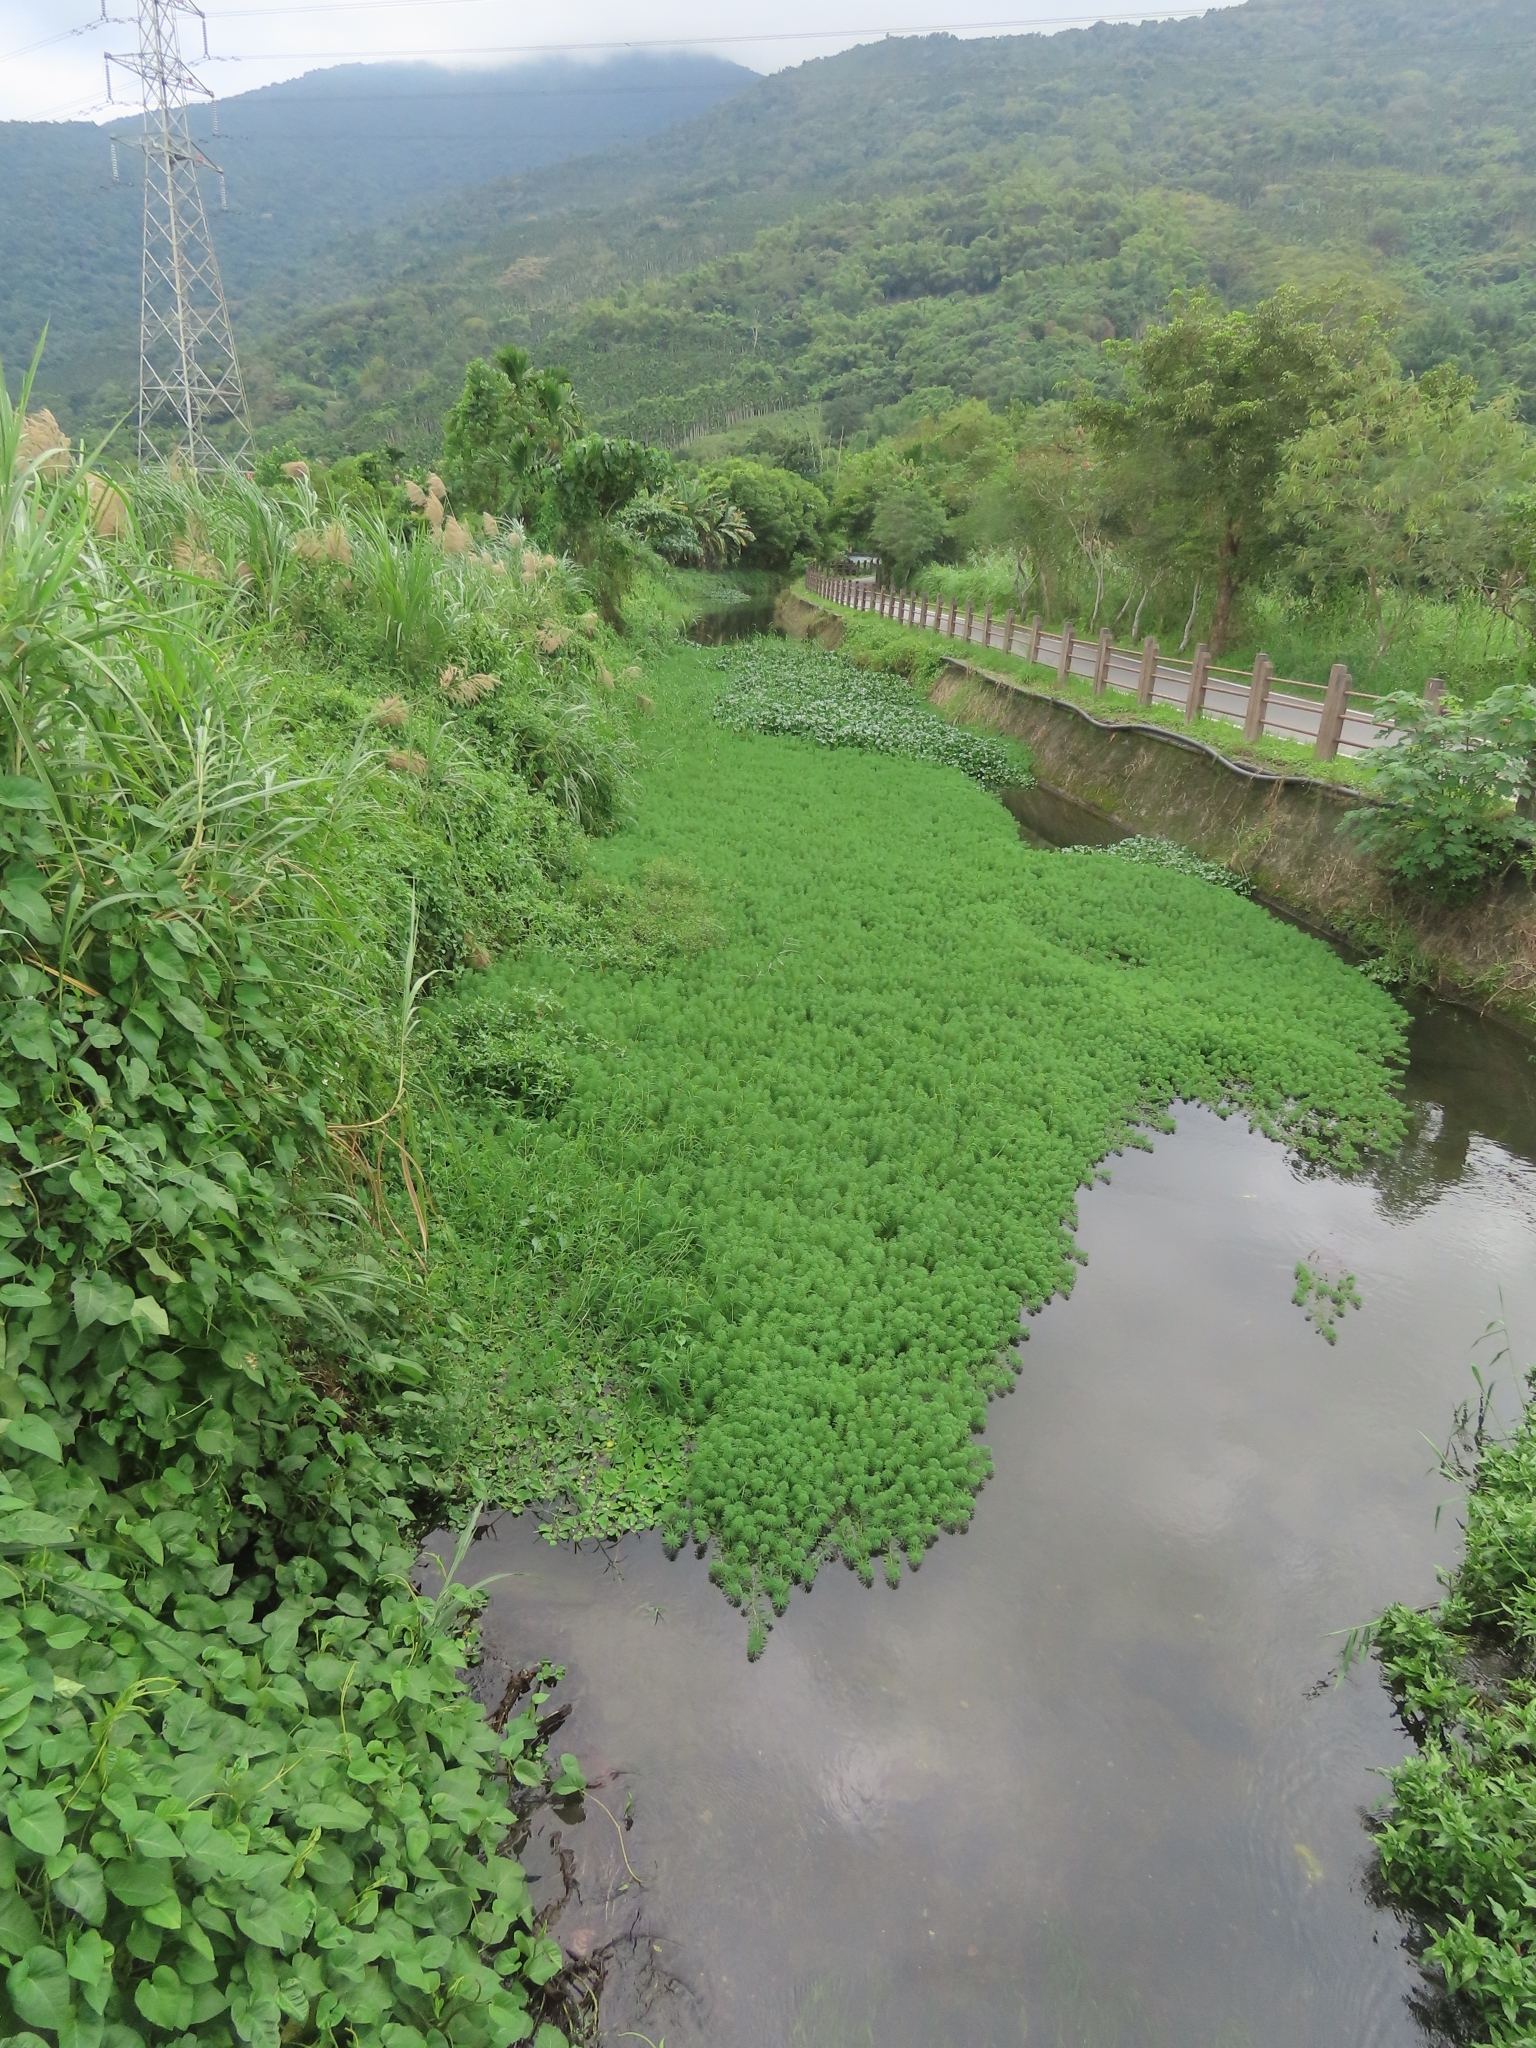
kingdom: Plantae
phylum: Tracheophyta
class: Magnoliopsida
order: Saxifragales
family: Haloragaceae
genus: Myriophyllum
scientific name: Myriophyllum aquaticum
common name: Parrot's feather
